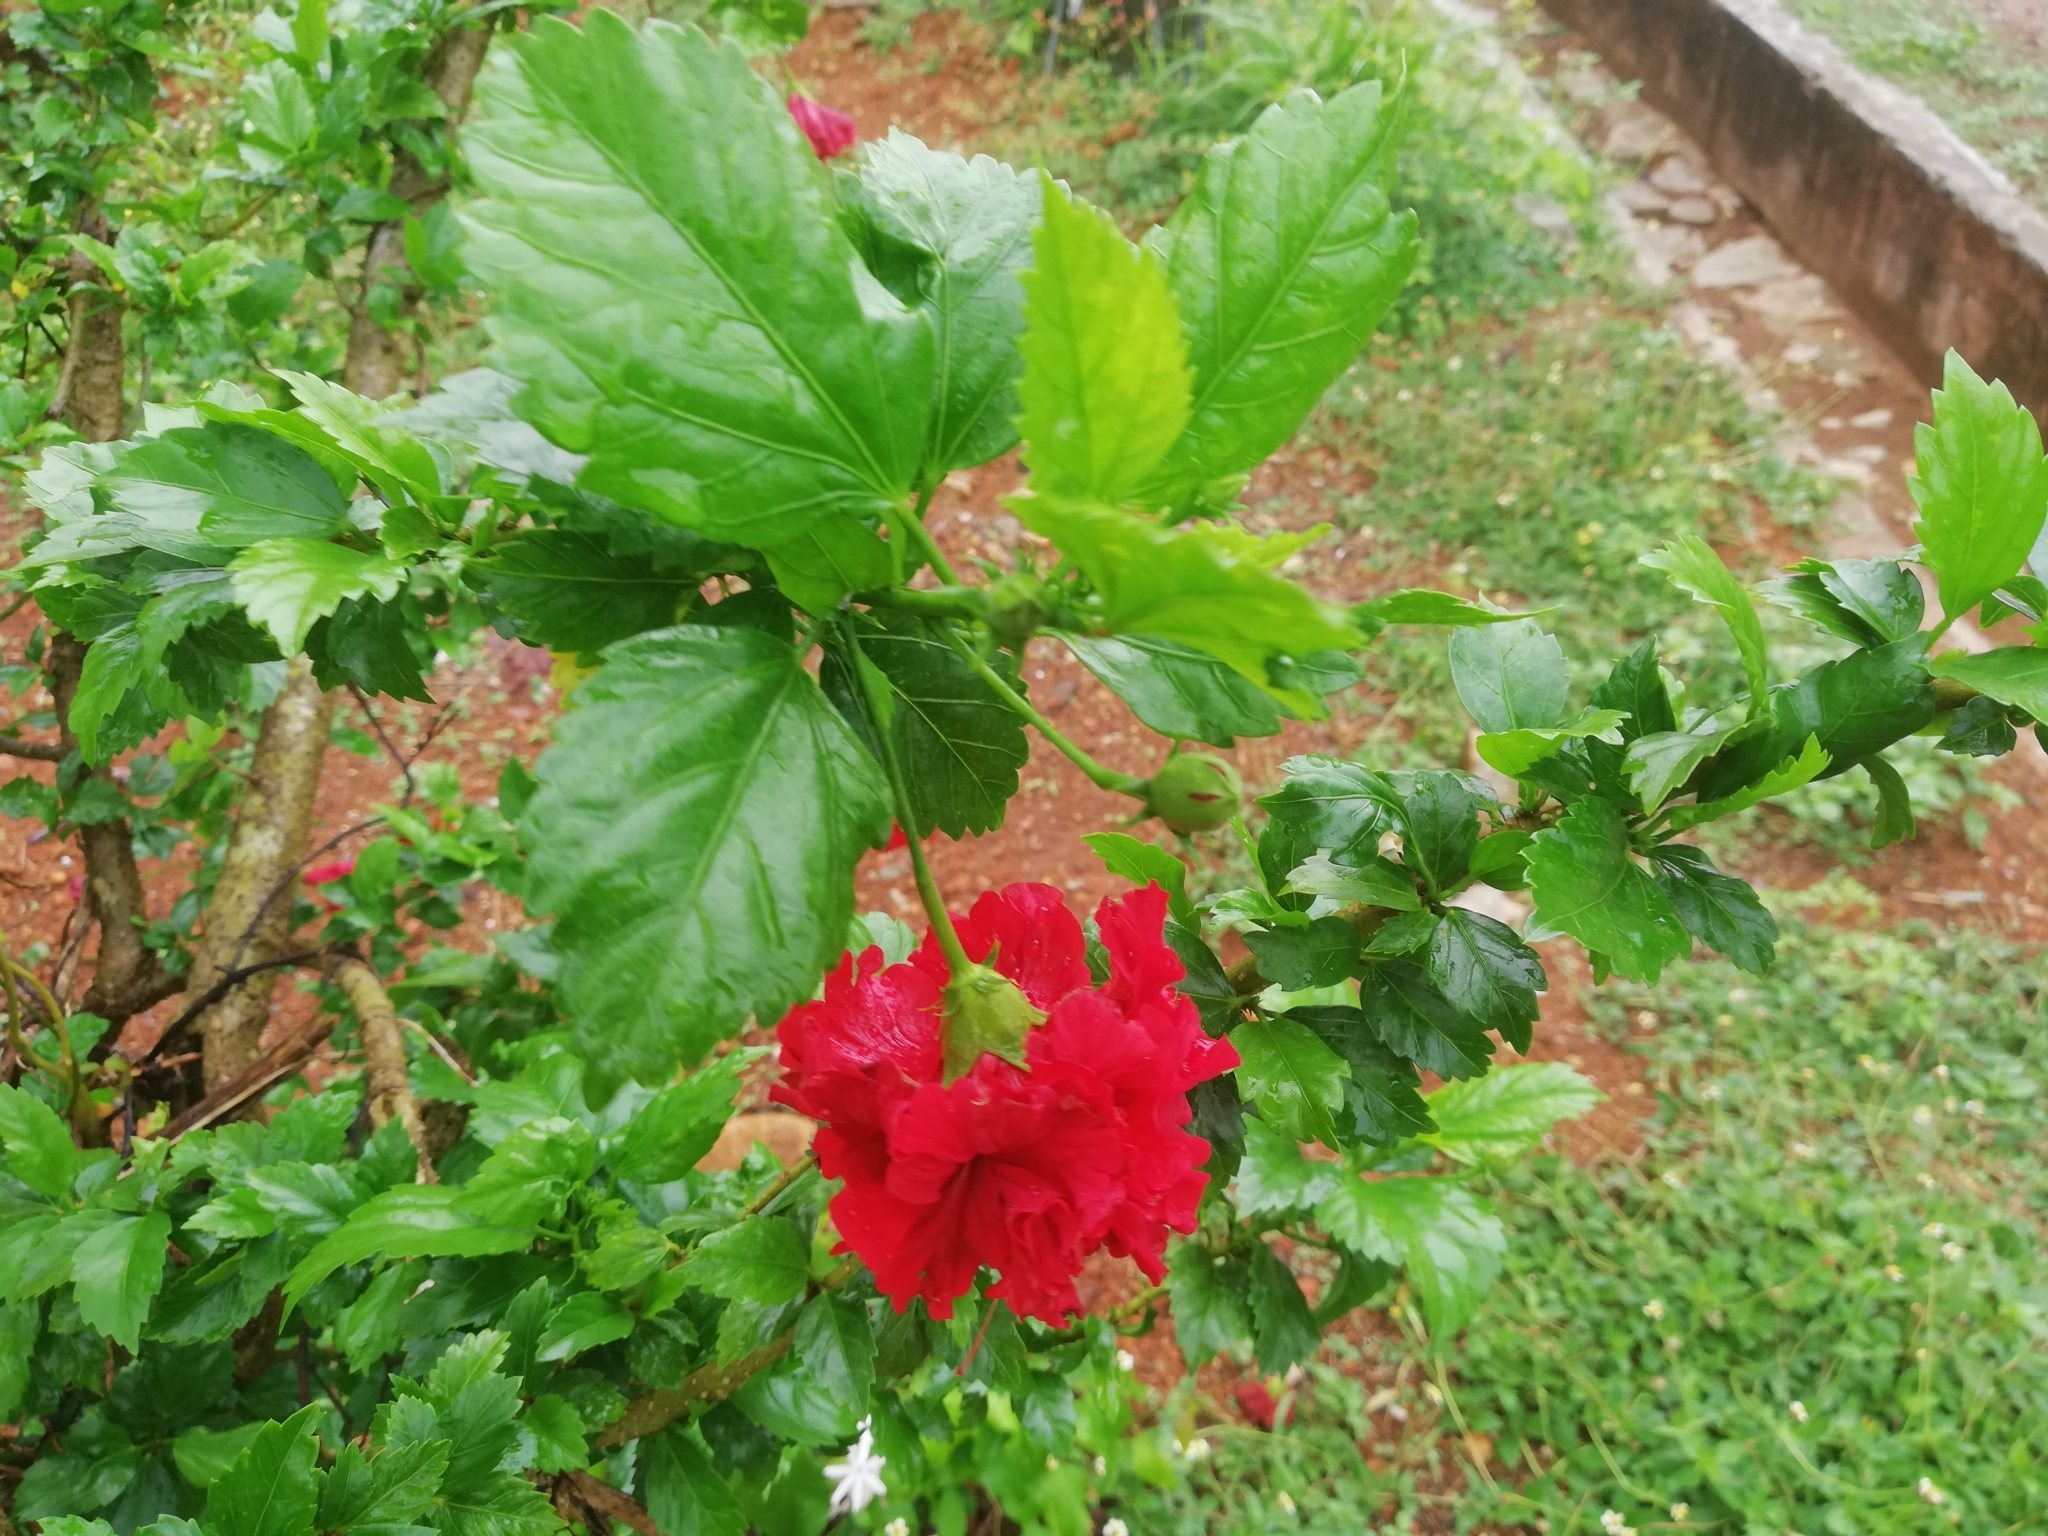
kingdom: Plantae
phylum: Tracheophyta
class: Magnoliopsida
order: Malvales
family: Malvaceae
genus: Hibiscus
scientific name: Hibiscus rosa-sinensis
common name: Hibiscus
